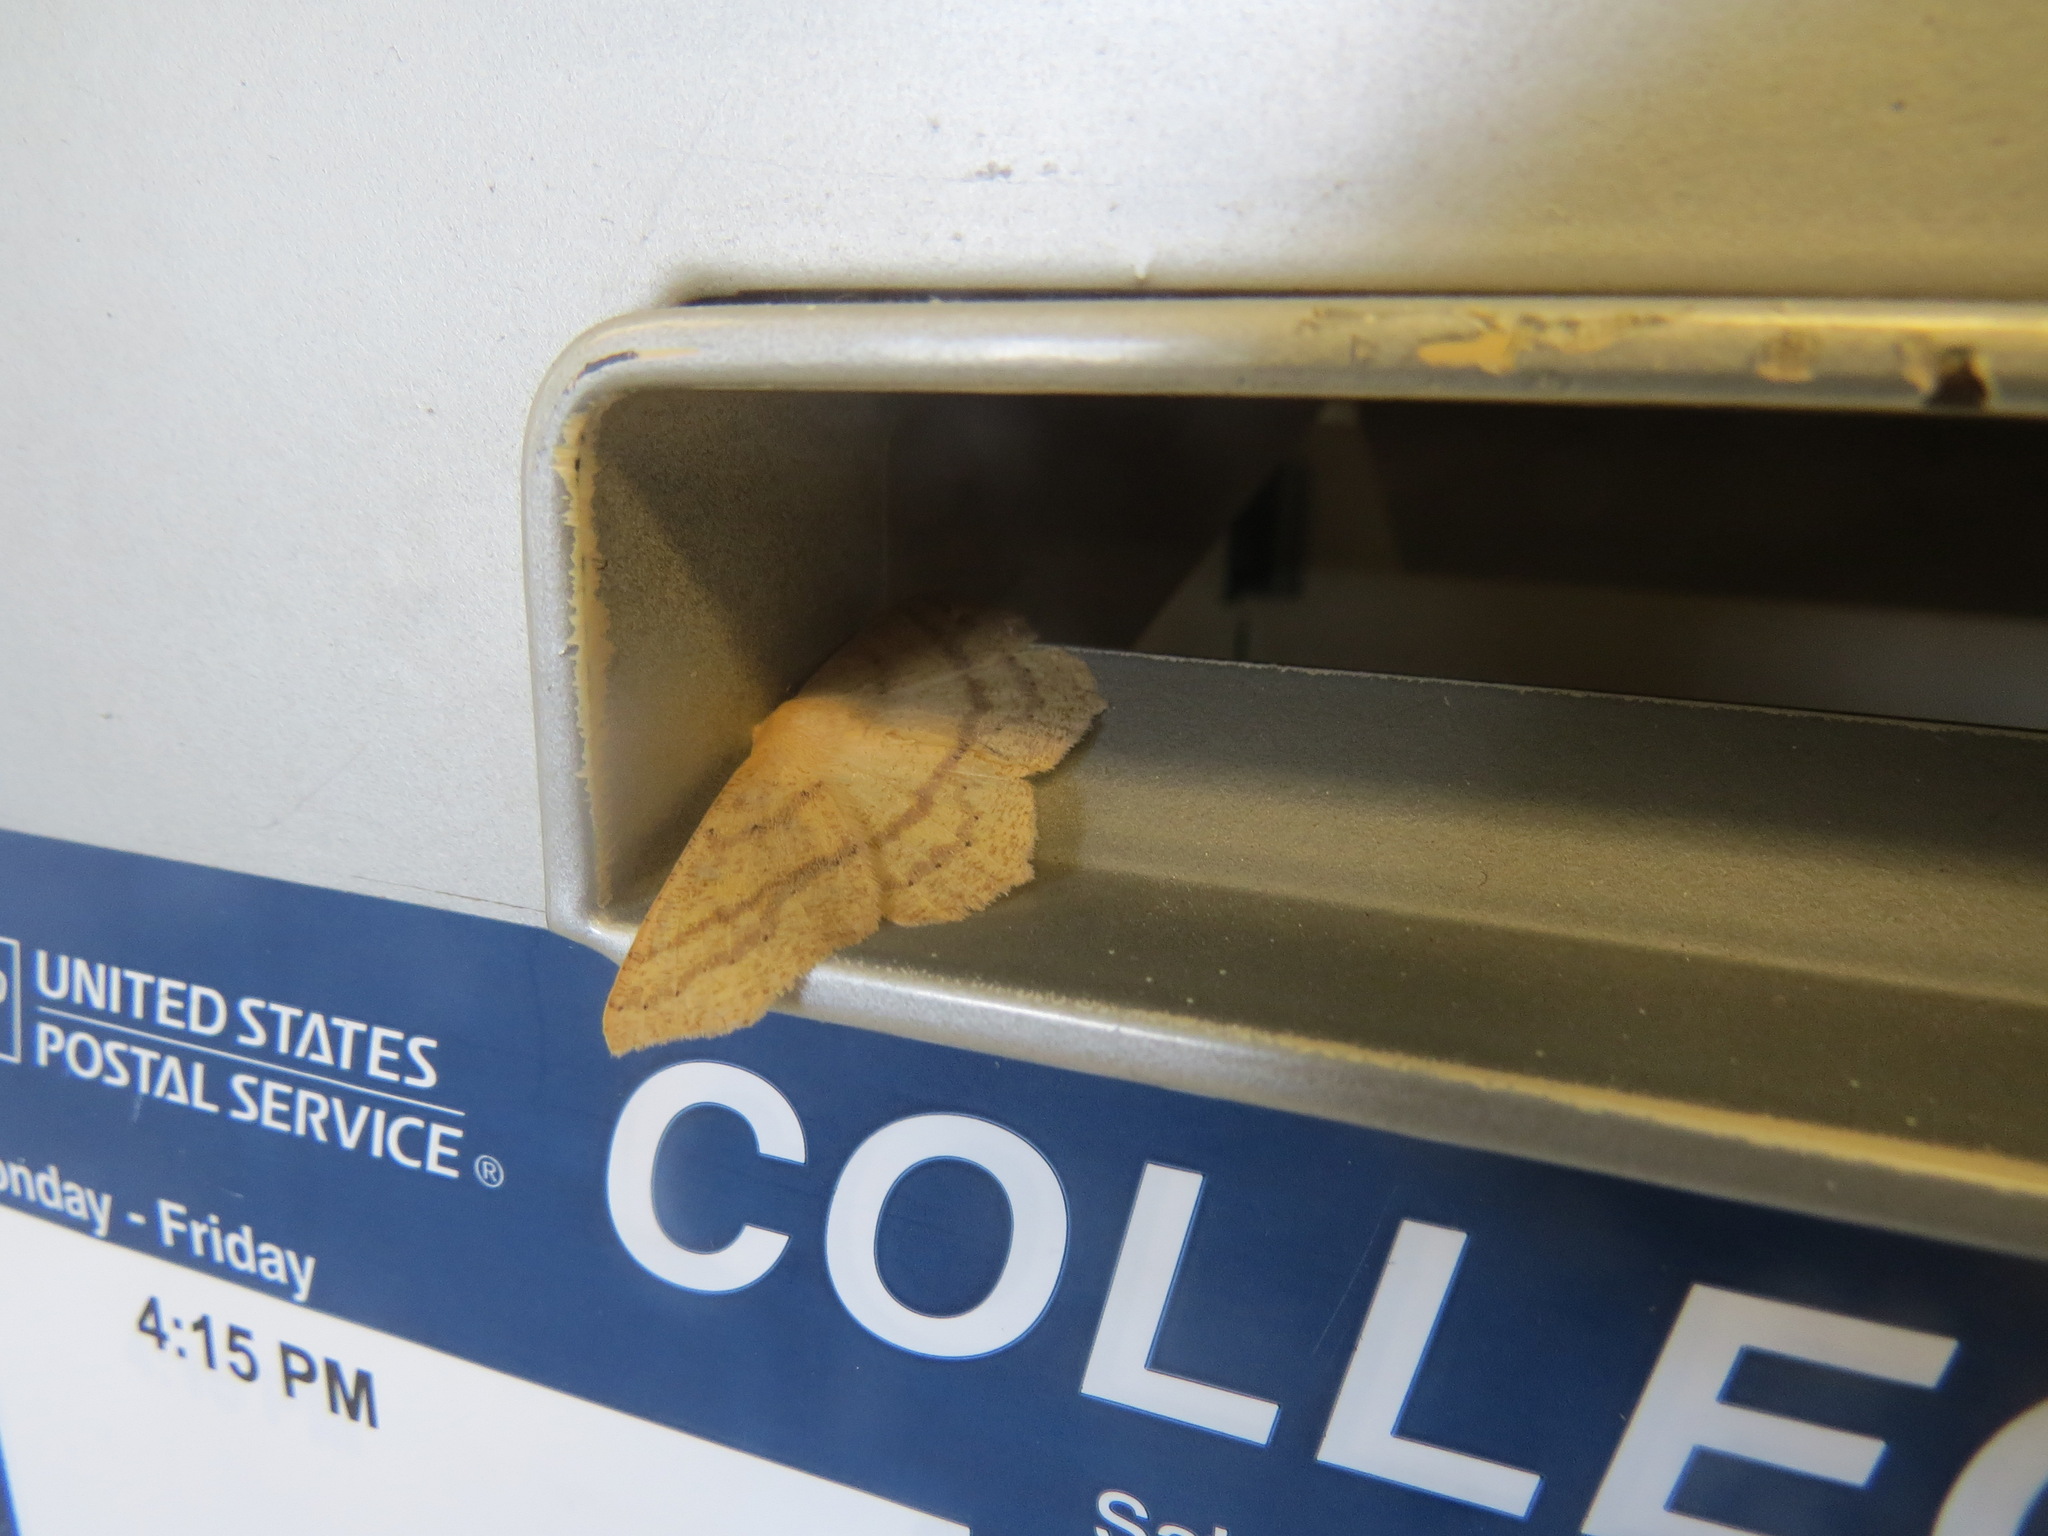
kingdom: Animalia
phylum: Arthropoda
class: Insecta
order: Lepidoptera
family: Geometridae
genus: Sabulodes
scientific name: Sabulodes aegrotata
